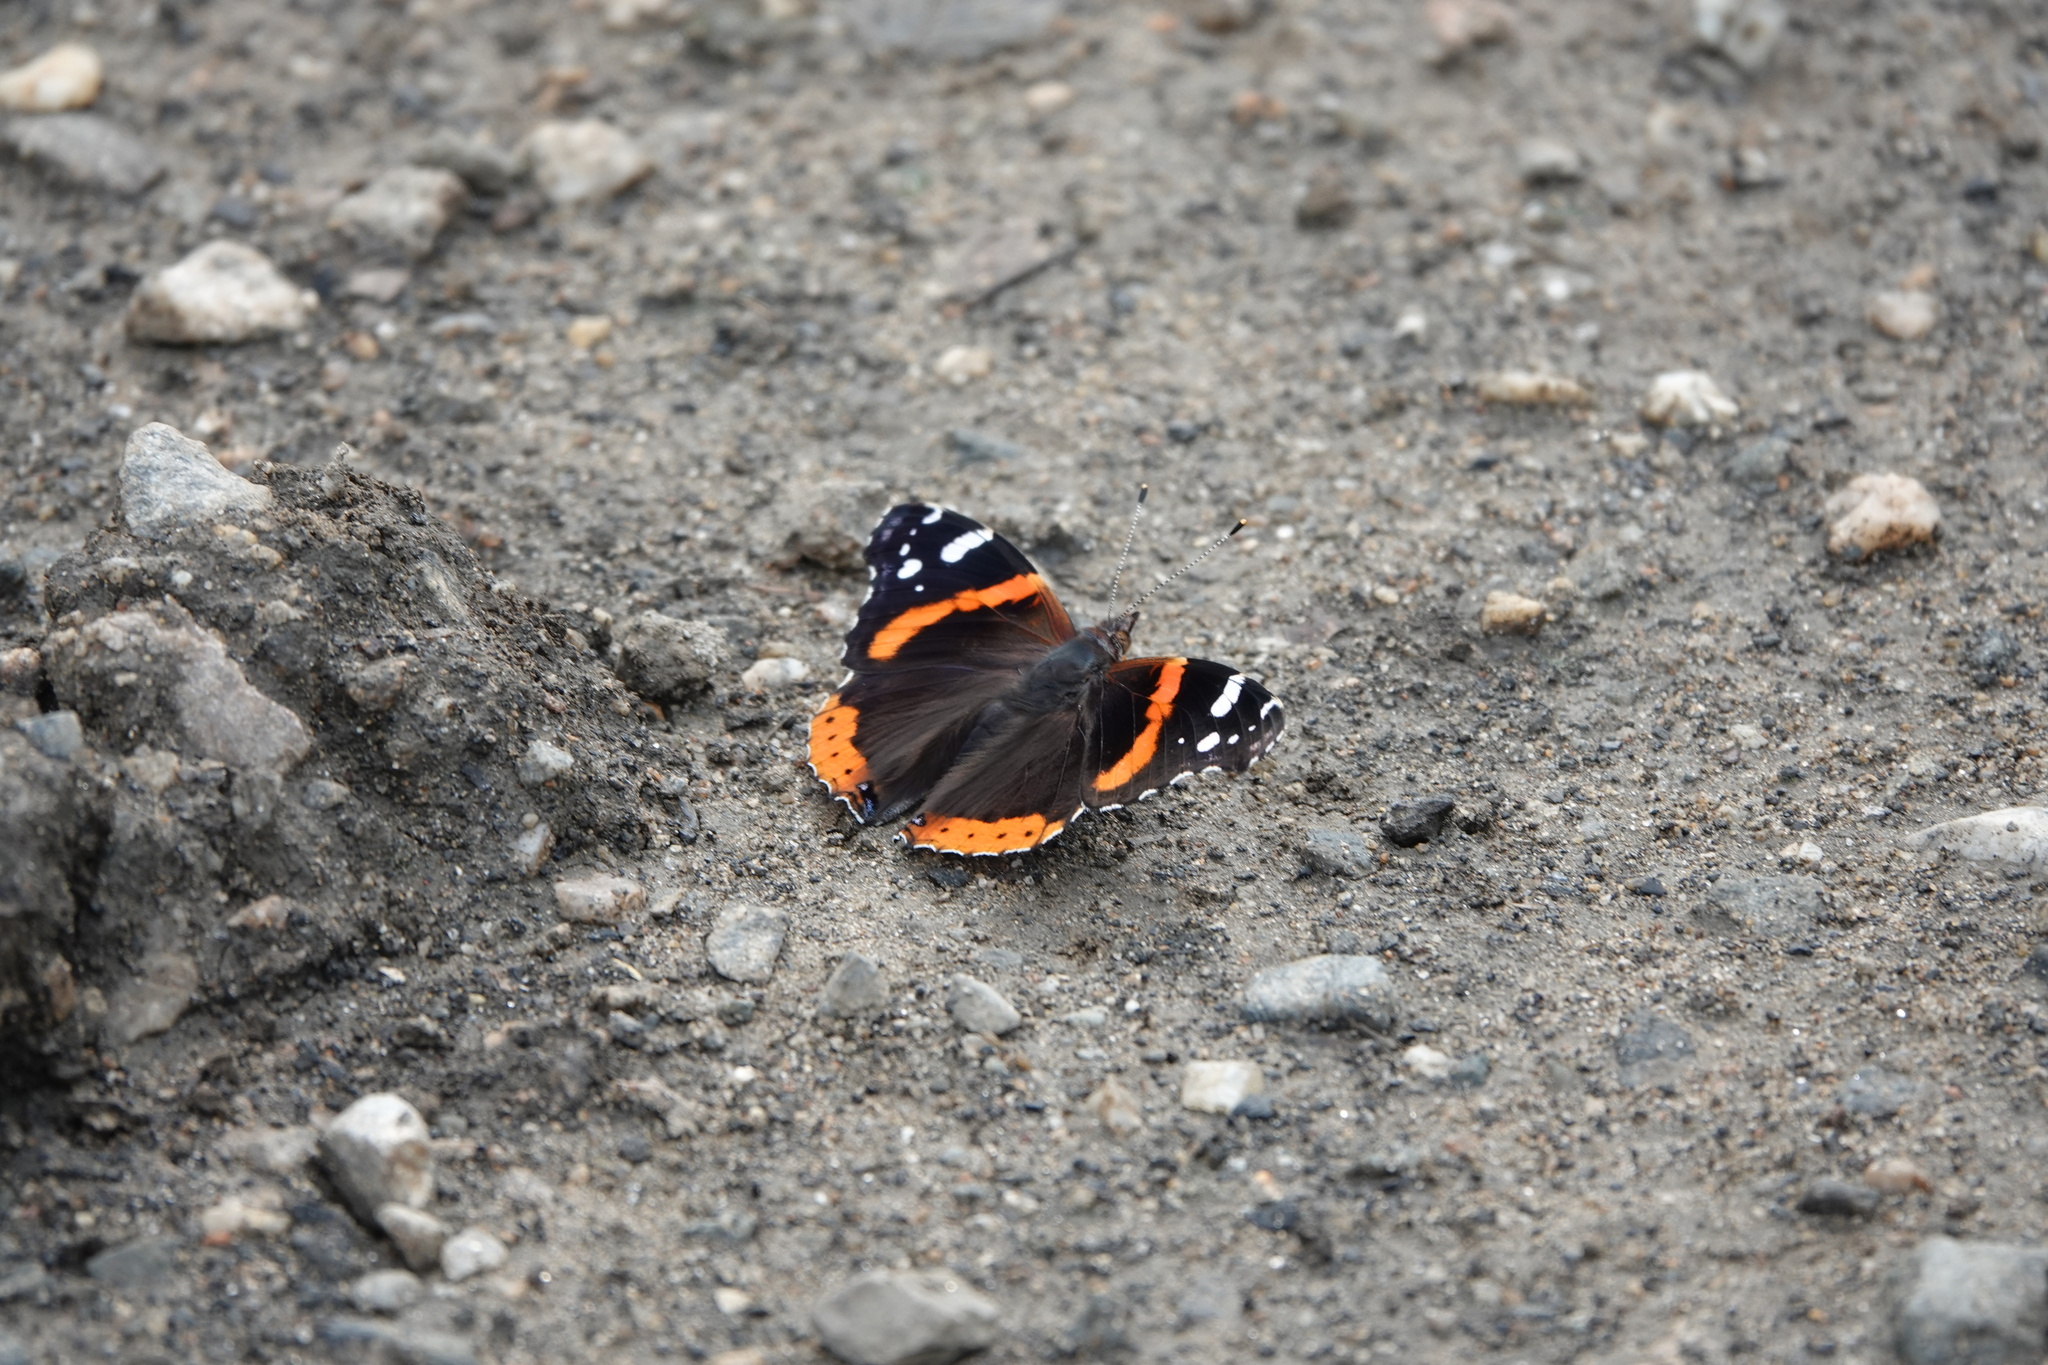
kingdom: Animalia
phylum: Arthropoda
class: Insecta
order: Lepidoptera
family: Nymphalidae
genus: Vanessa
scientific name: Vanessa atalanta
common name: Red admiral
